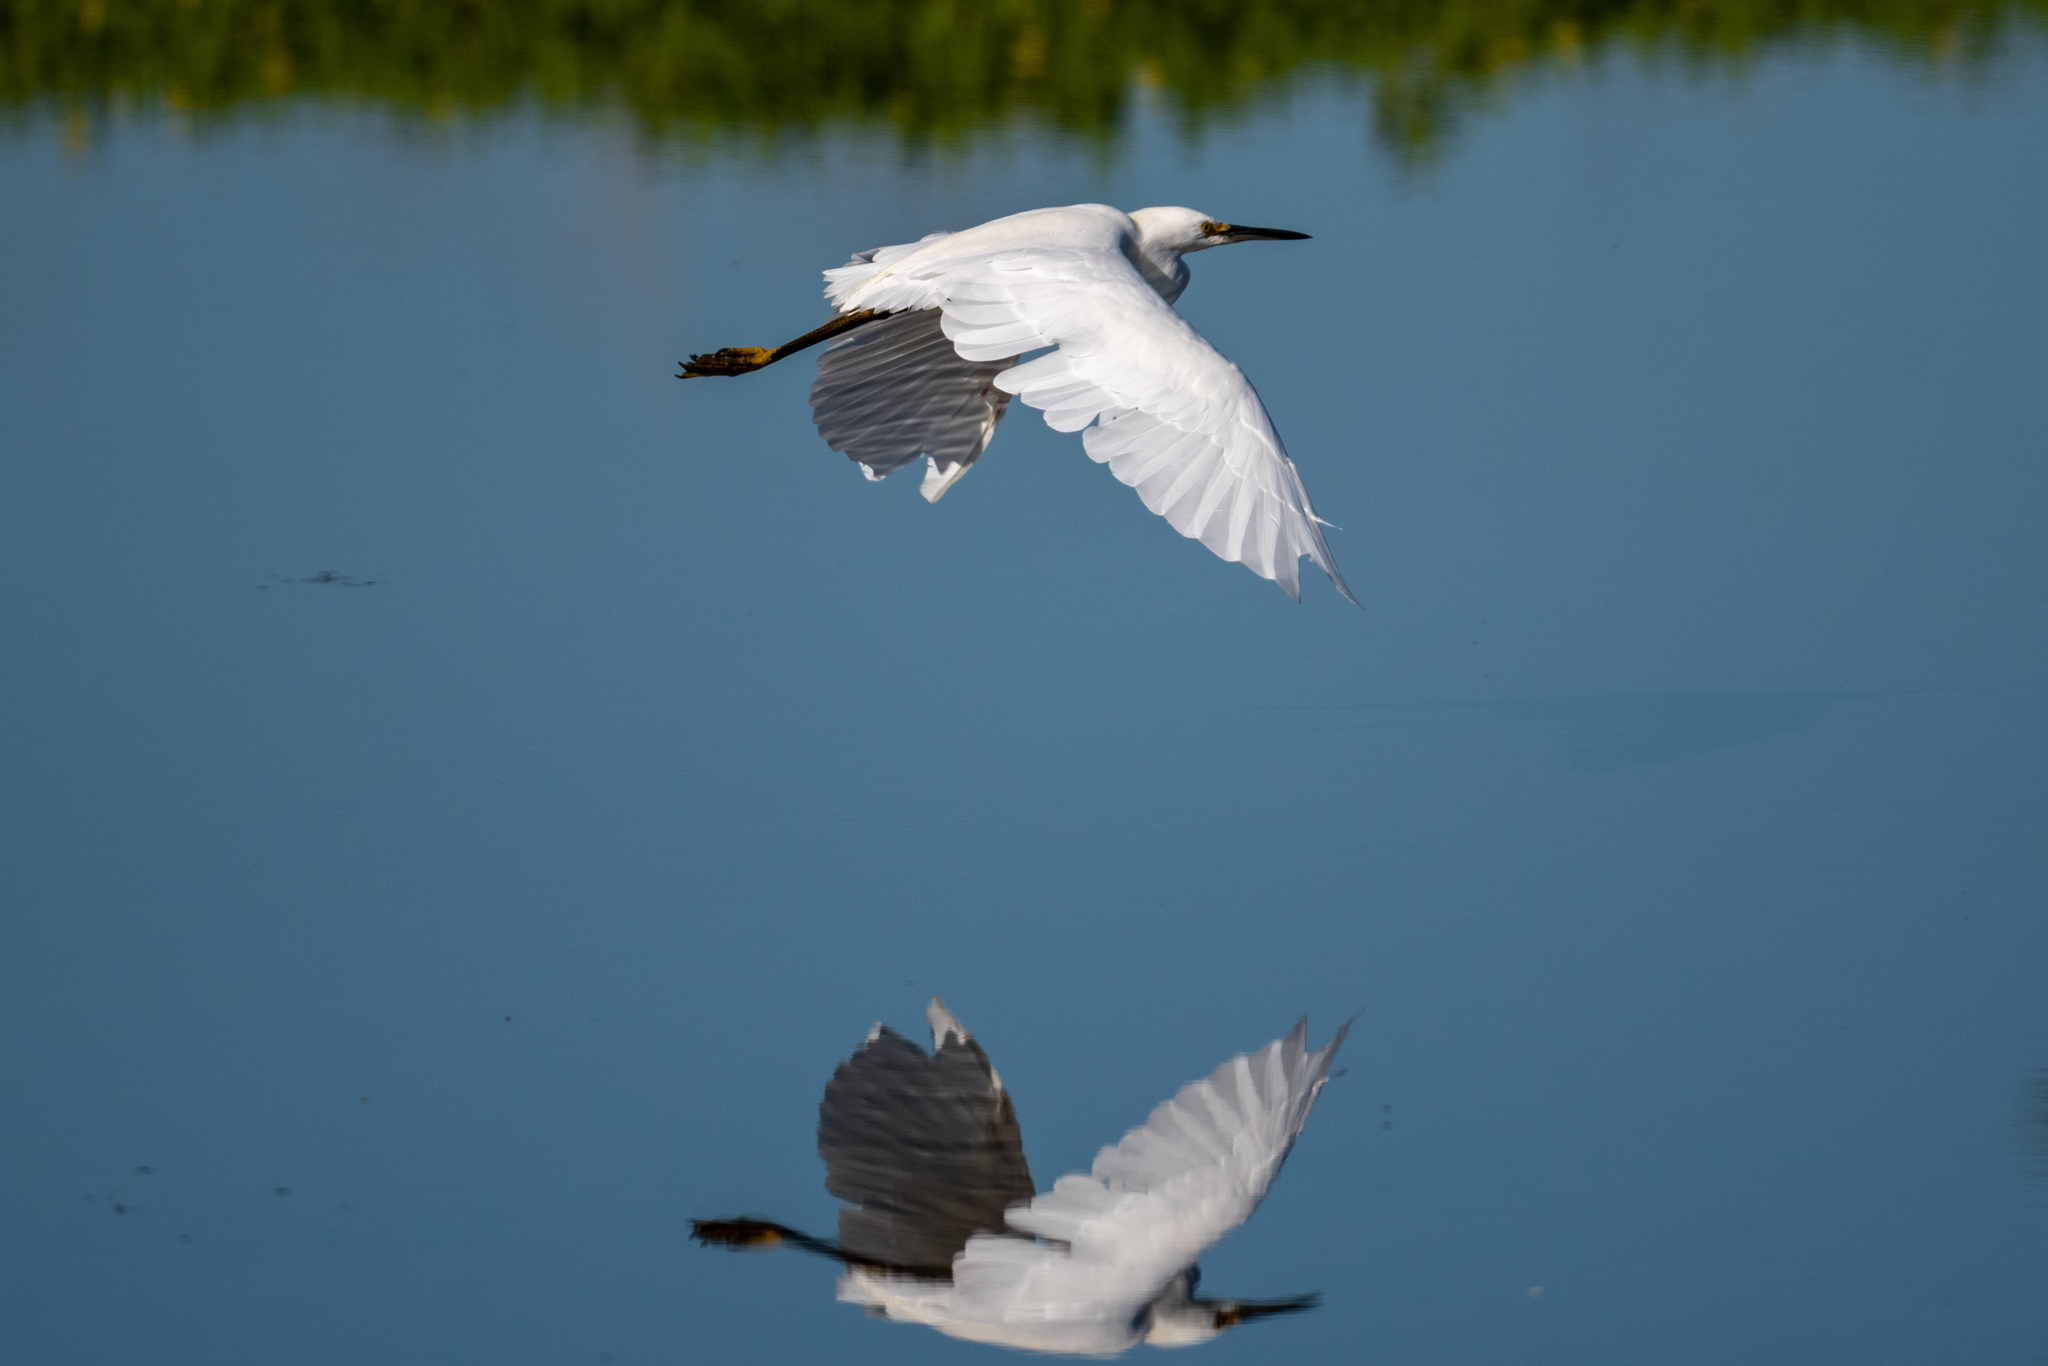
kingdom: Animalia
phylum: Chordata
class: Aves
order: Pelecaniformes
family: Ardeidae
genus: Egretta
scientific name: Egretta thula
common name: Snowy egret
